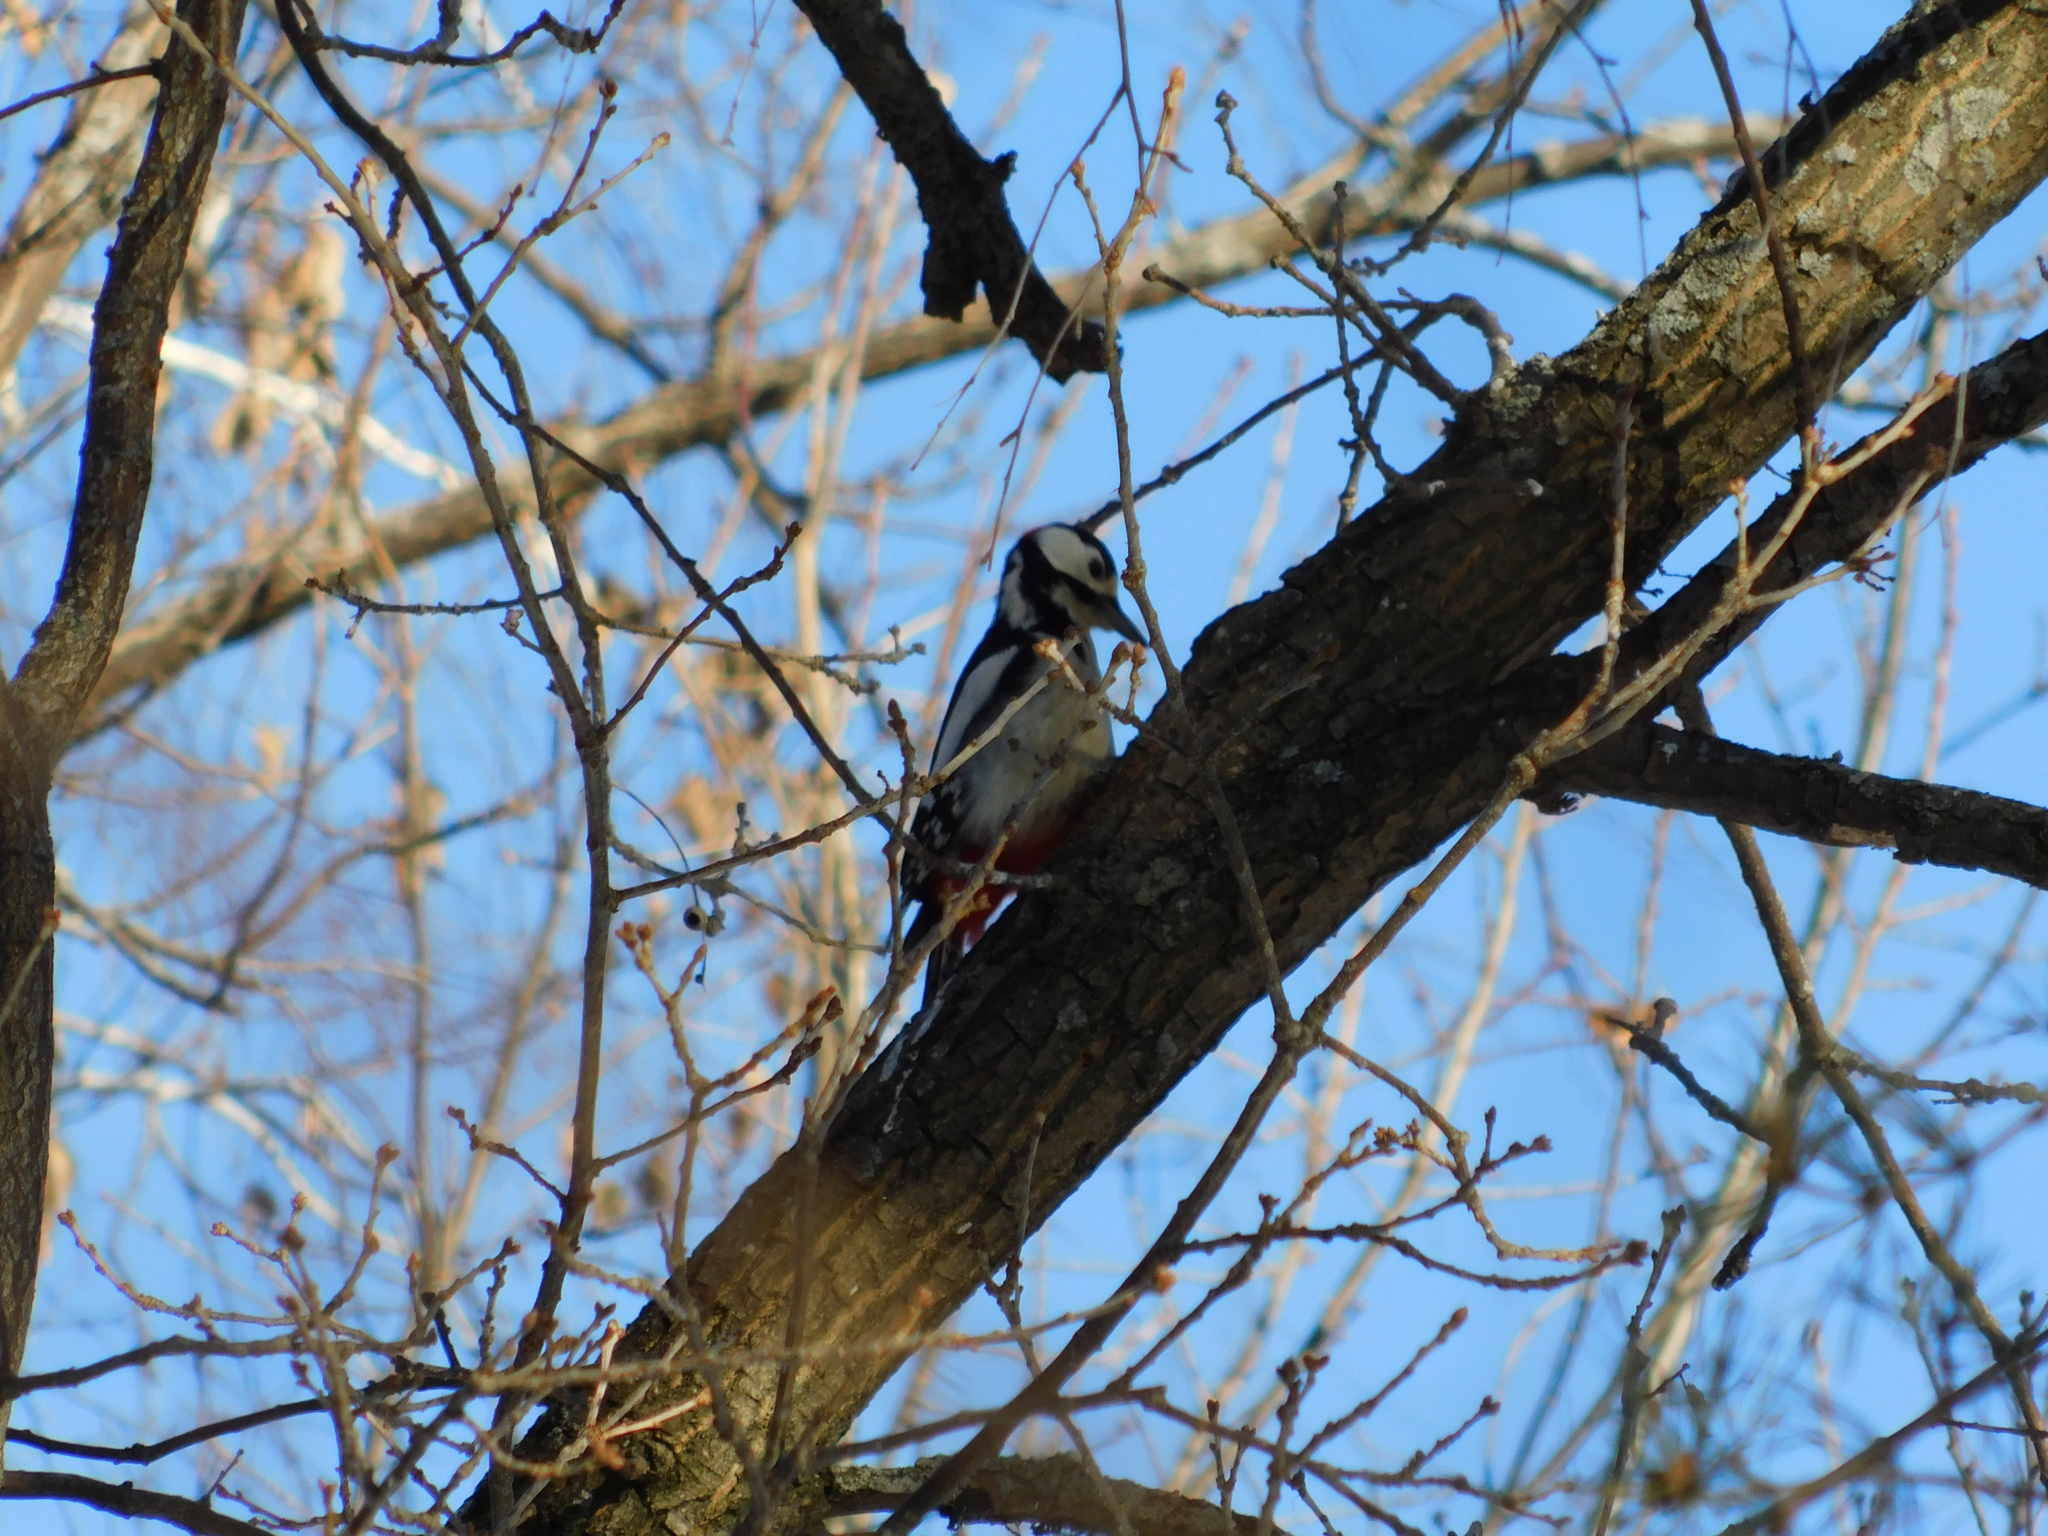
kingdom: Animalia
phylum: Chordata
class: Aves
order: Piciformes
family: Picidae
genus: Dendrocopos
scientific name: Dendrocopos major
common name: Great spotted woodpecker
